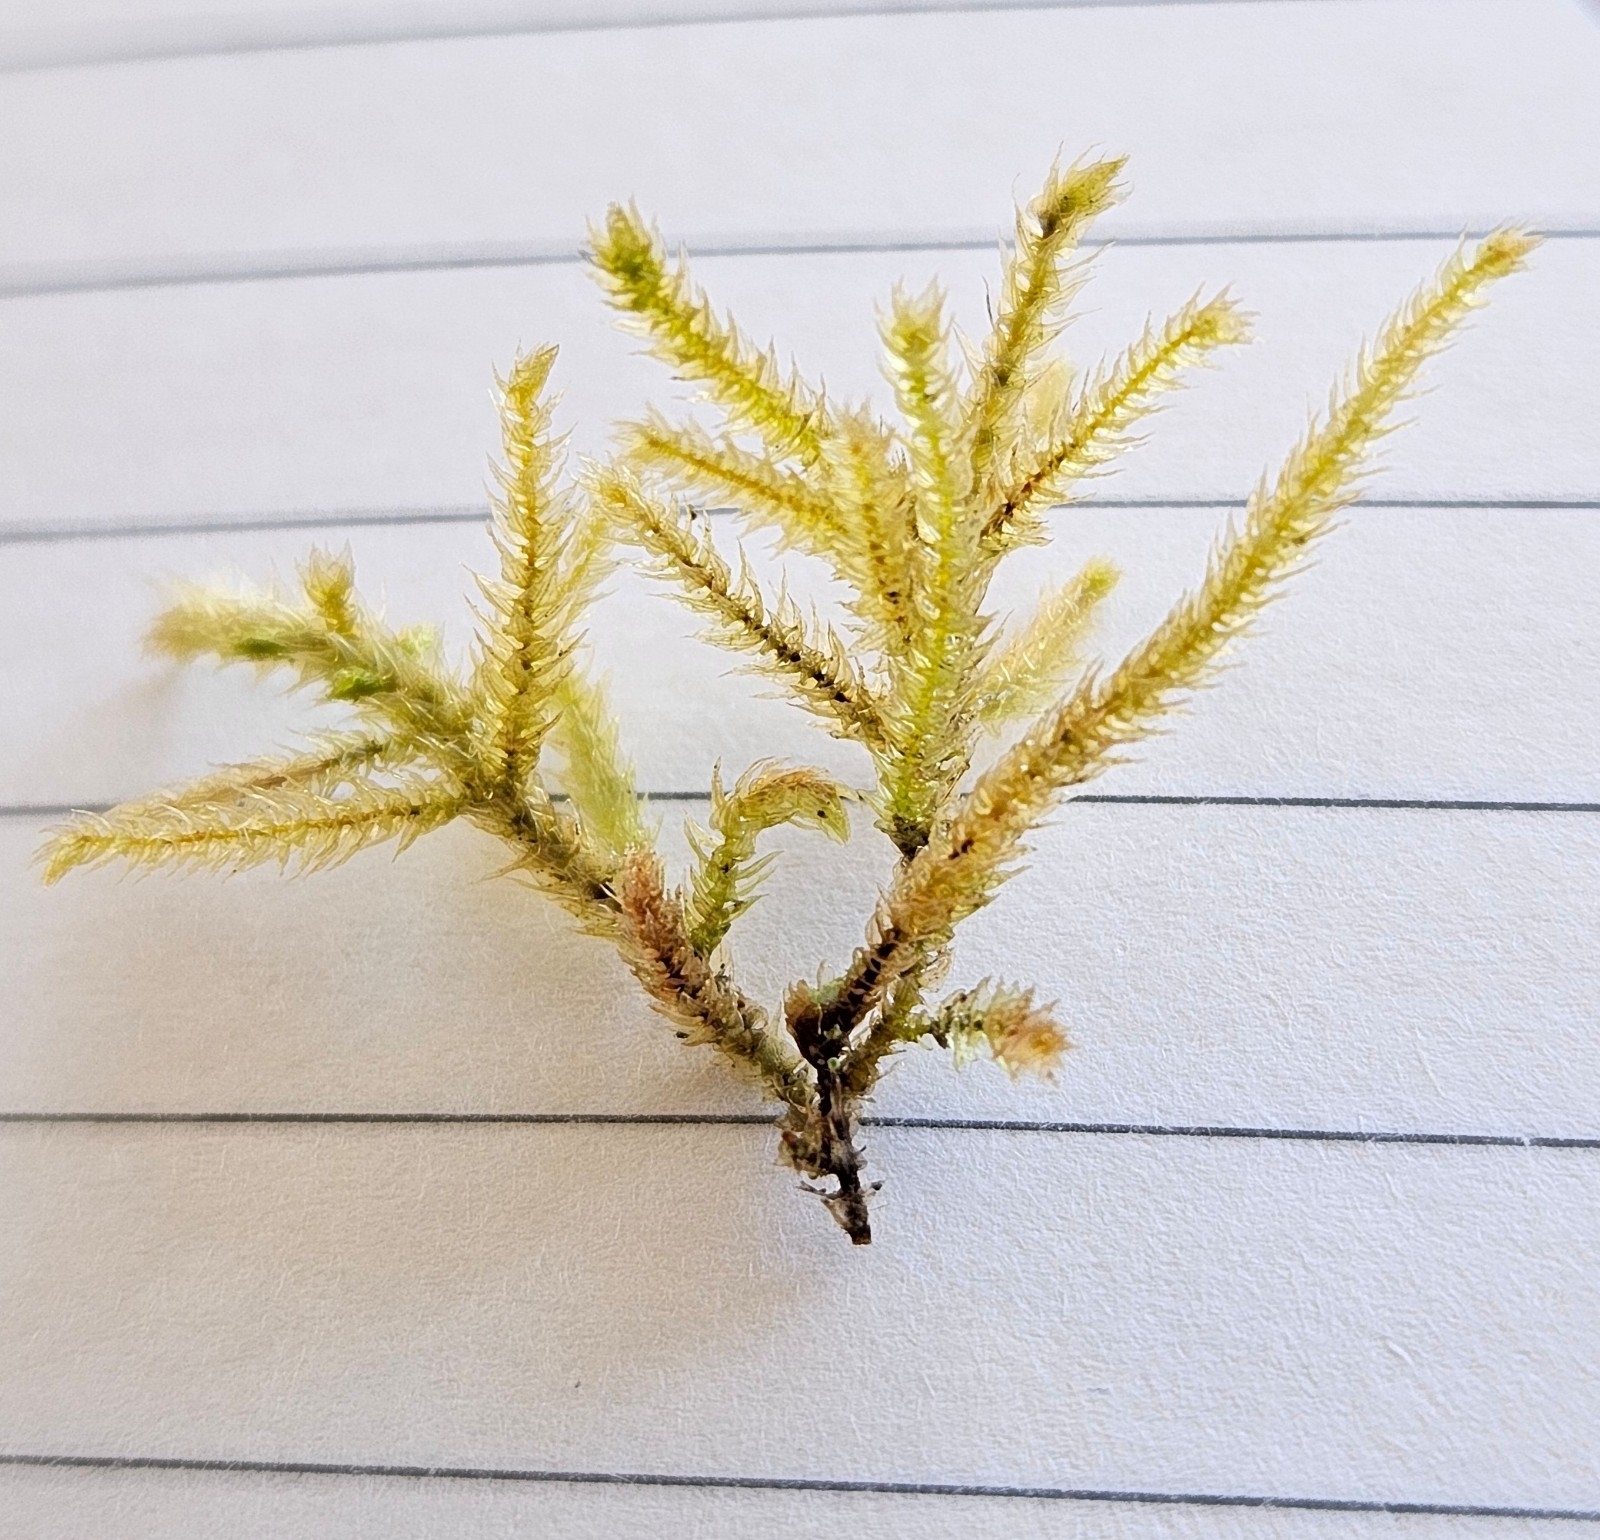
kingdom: Plantae
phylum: Bryophyta
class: Bryopsida
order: Hypnales
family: Brachytheciaceae
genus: Eurhynchium
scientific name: Eurhynchium striatum
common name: Common striated feather-moss
